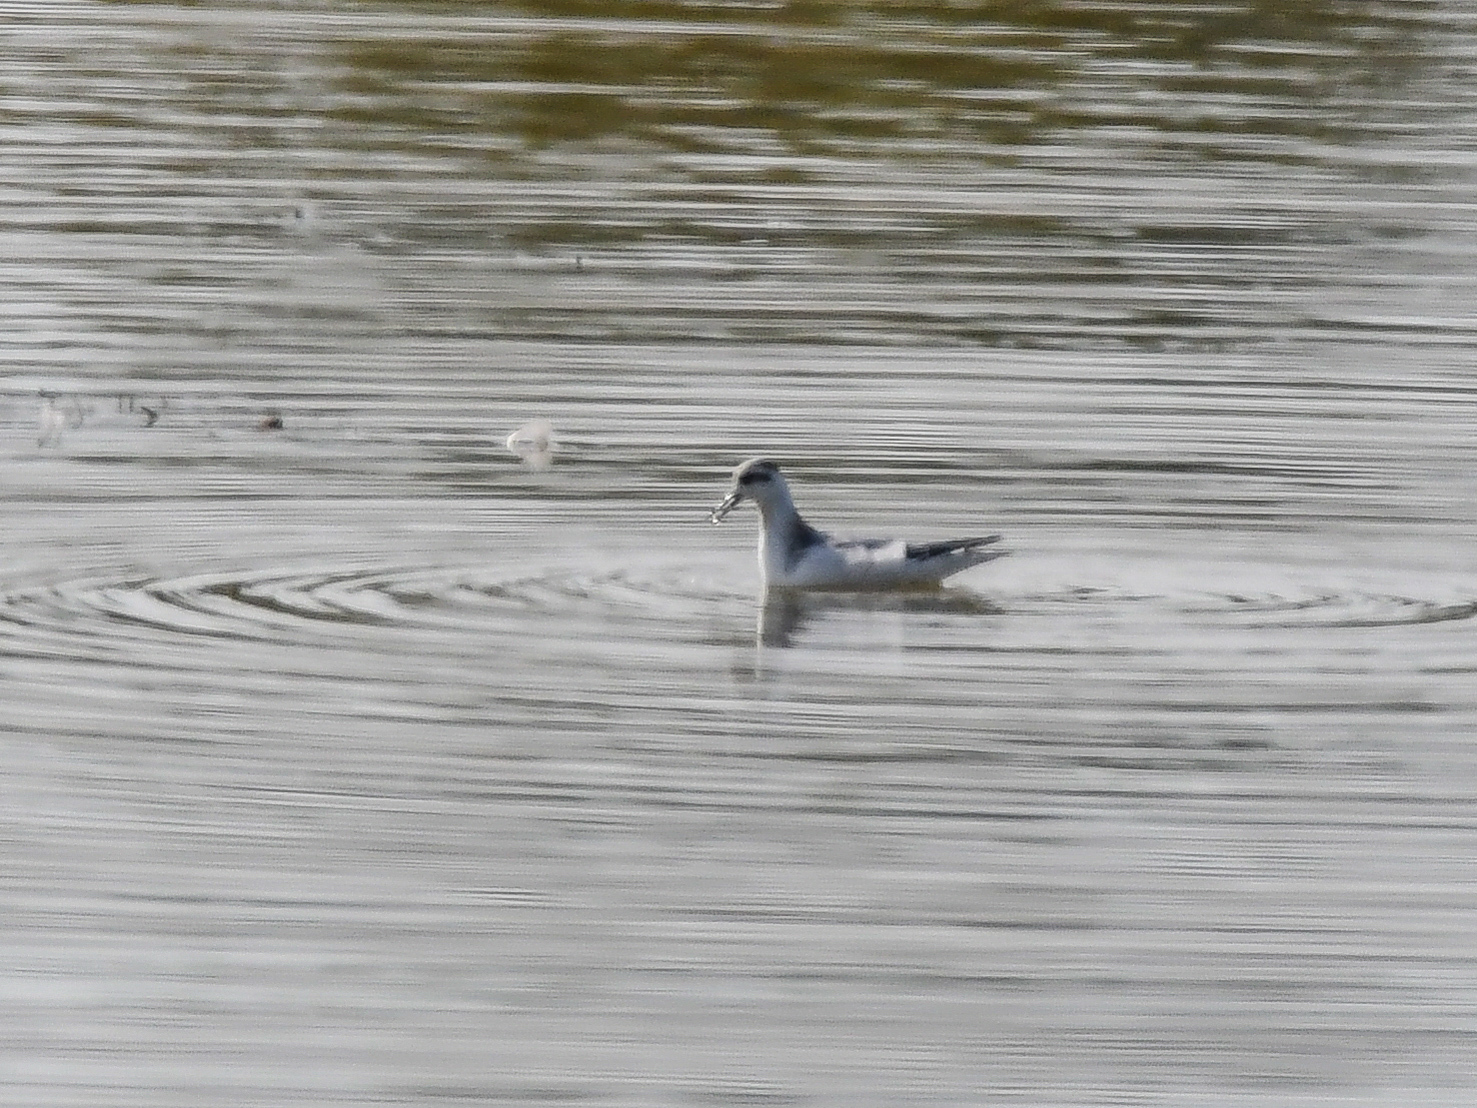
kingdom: Animalia
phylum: Chordata
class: Aves
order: Charadriiformes
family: Scolopacidae
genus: Phalaropus
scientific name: Phalaropus fulicarius
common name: Red phalarope
